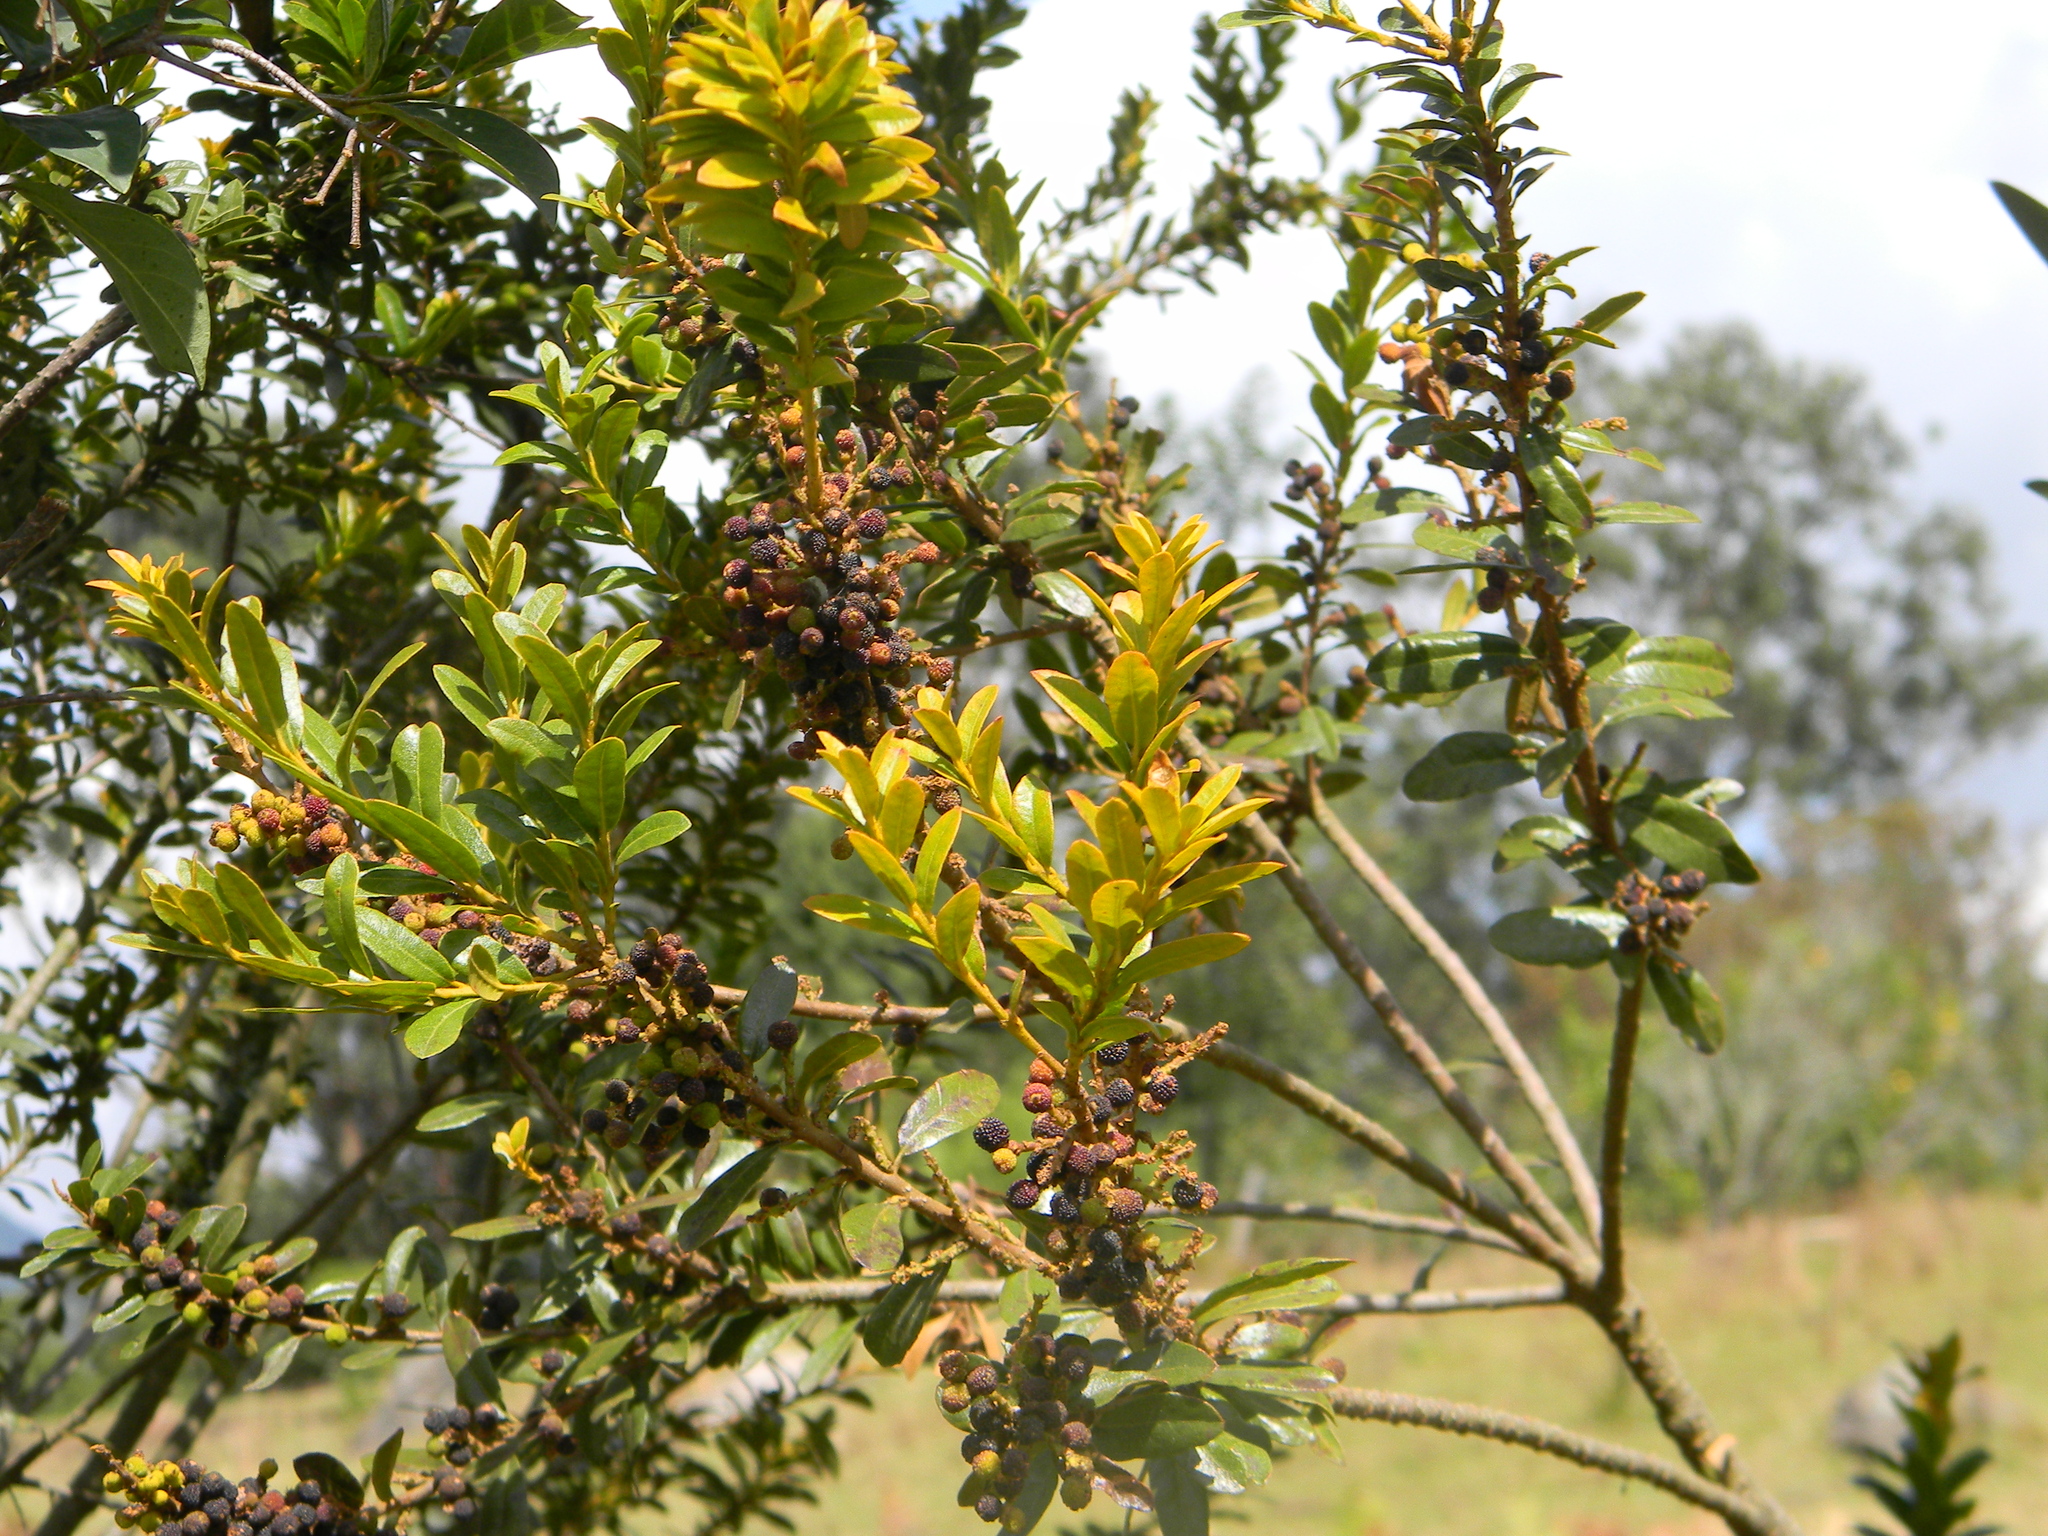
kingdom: Plantae
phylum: Tracheophyta
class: Magnoliopsida
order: Fagales
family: Myricaceae
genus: Morella
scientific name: Morella parvifolia
